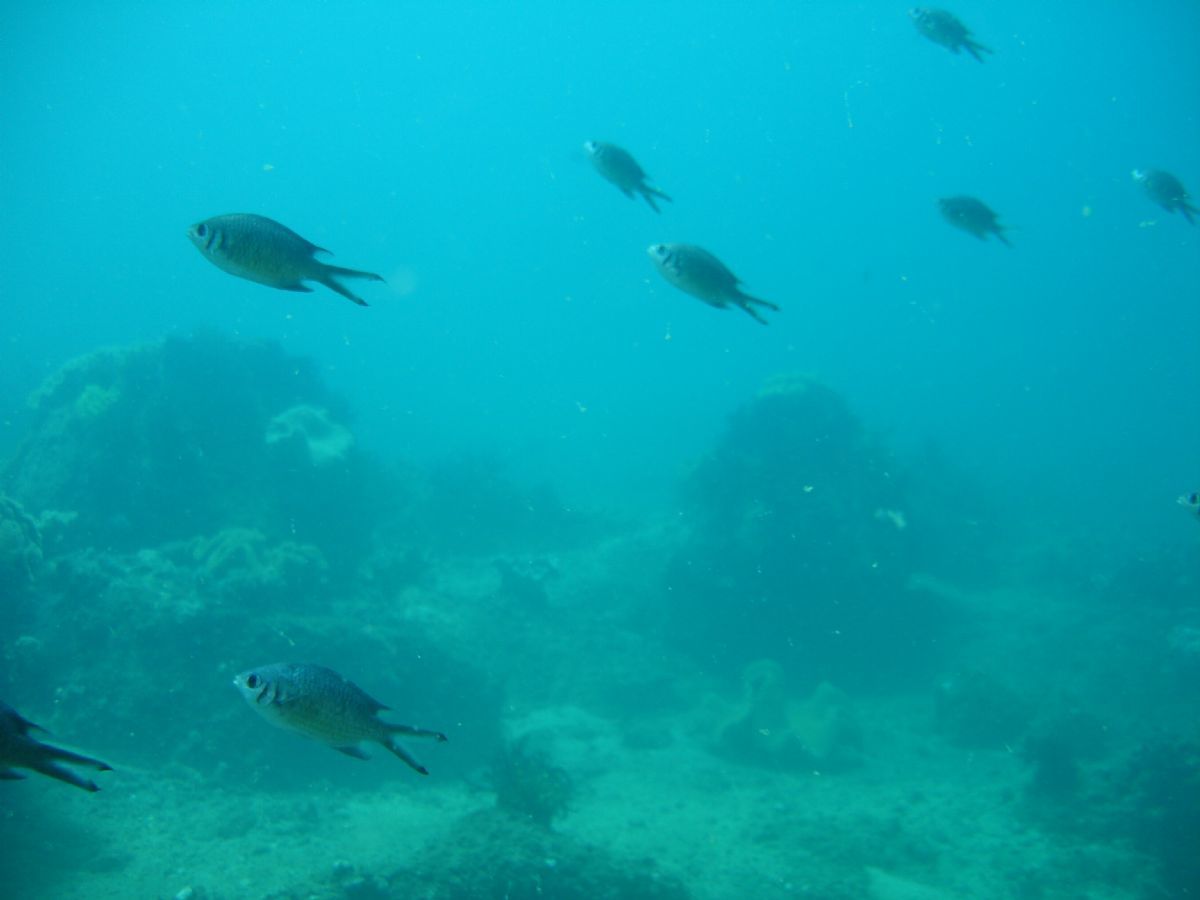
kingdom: Animalia
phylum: Chordata
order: Perciformes
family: Pomacentridae
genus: Chromis
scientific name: Chromis weberi
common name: Weber's chromis
